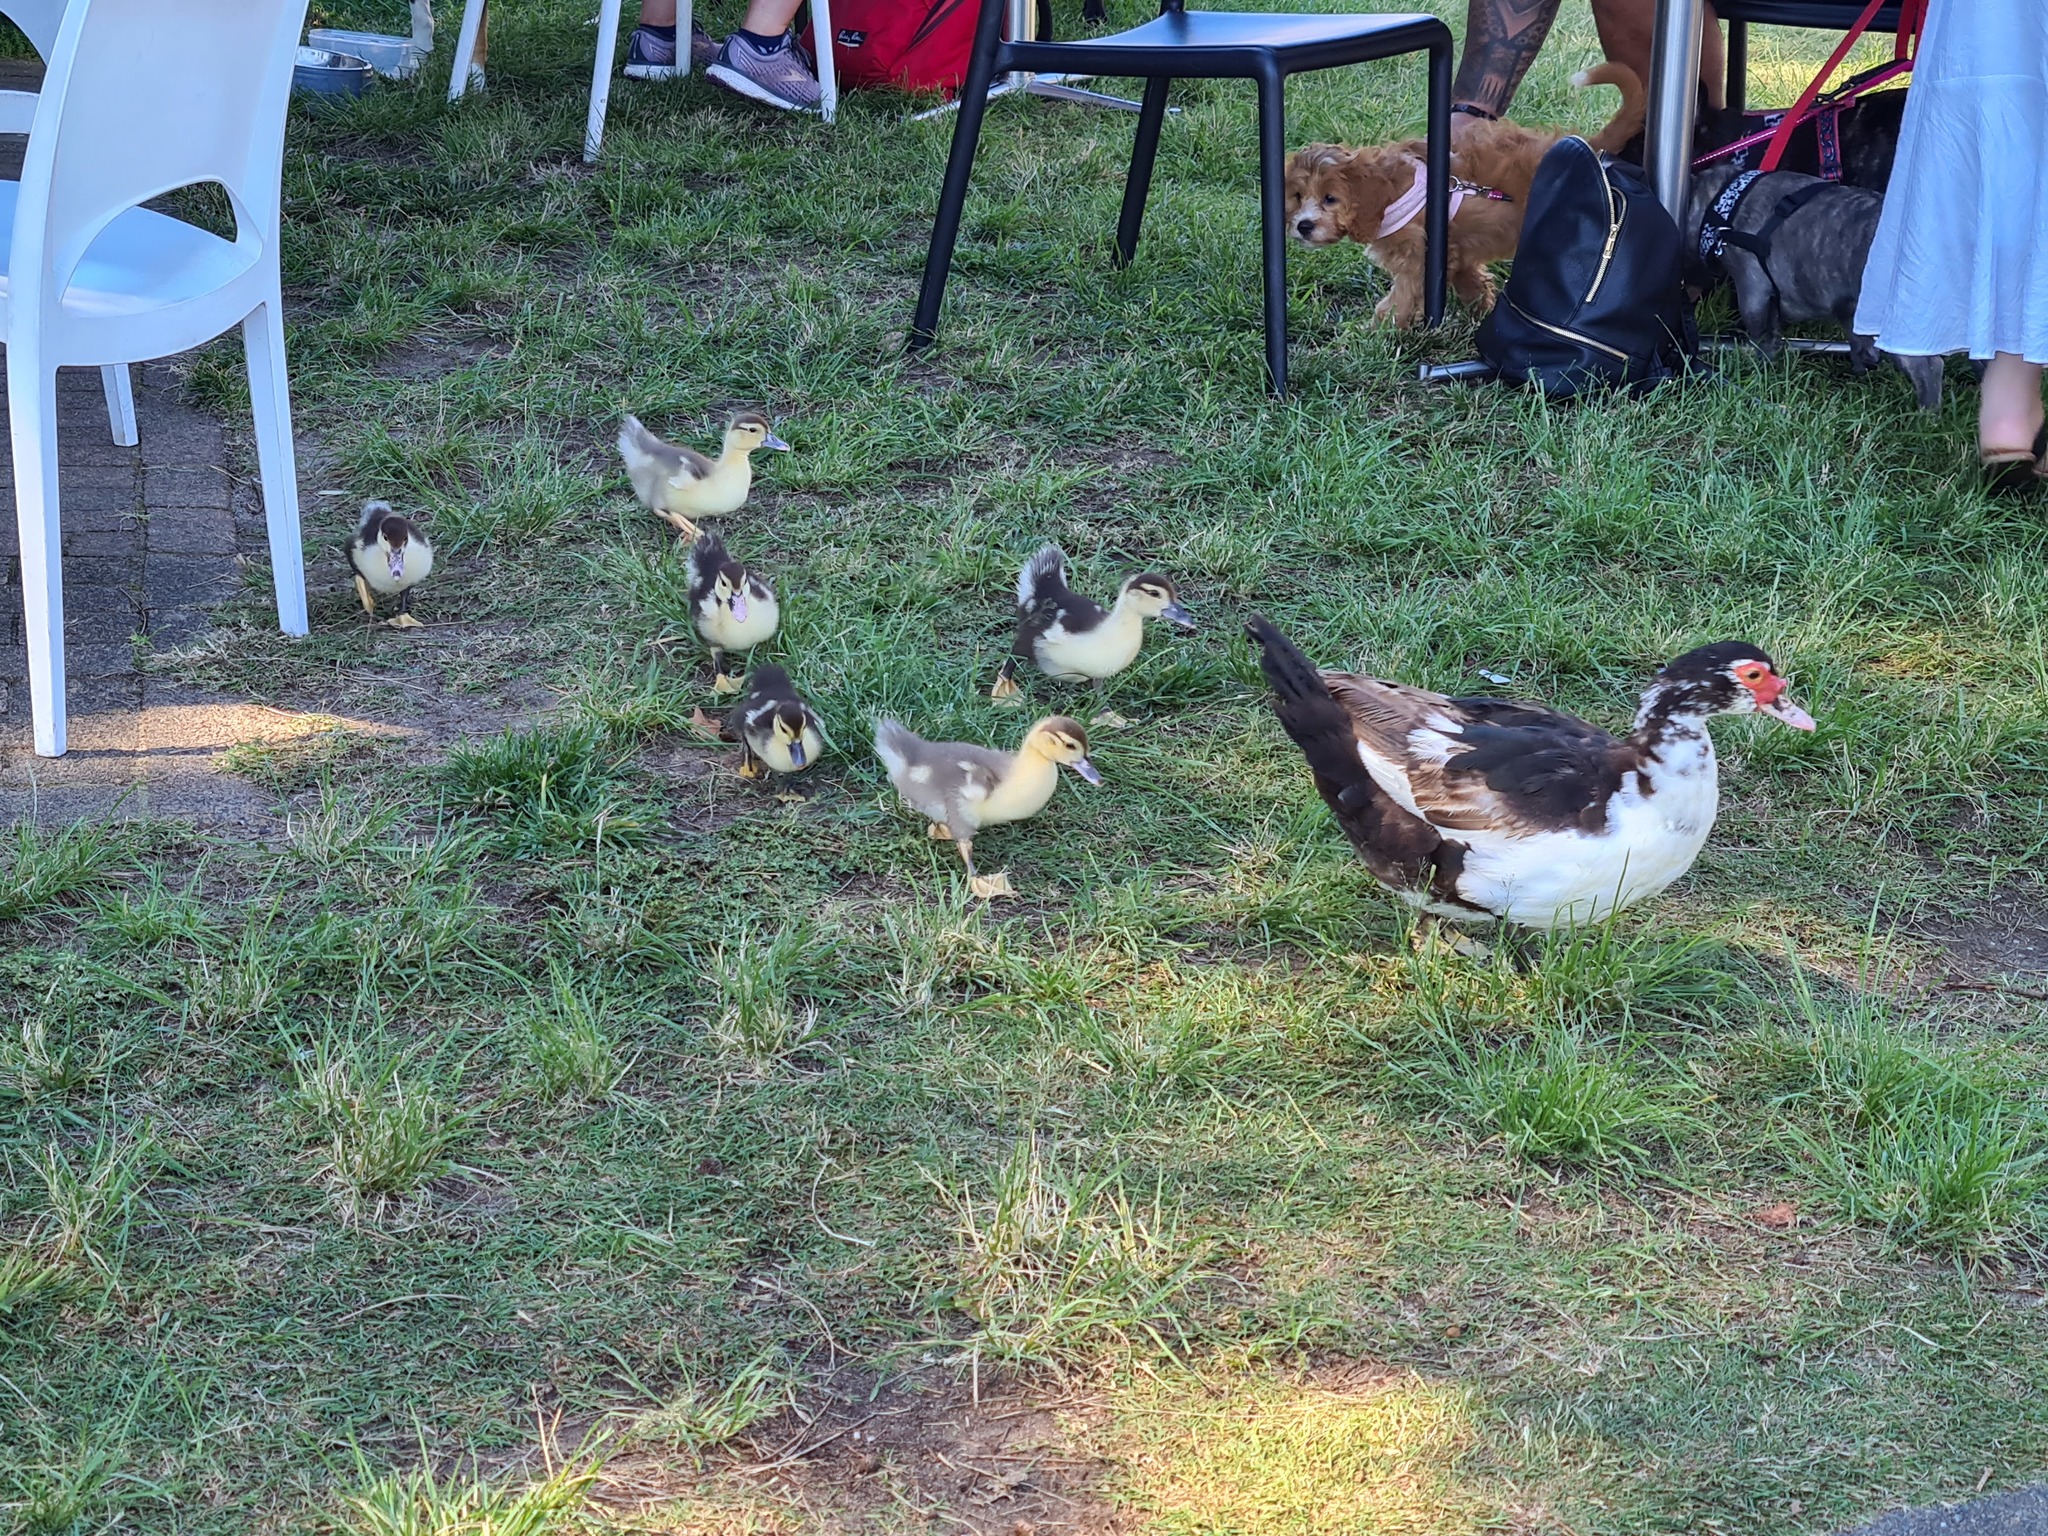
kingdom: Animalia
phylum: Chordata
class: Aves
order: Anseriformes
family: Anatidae
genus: Cairina
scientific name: Cairina moschata
